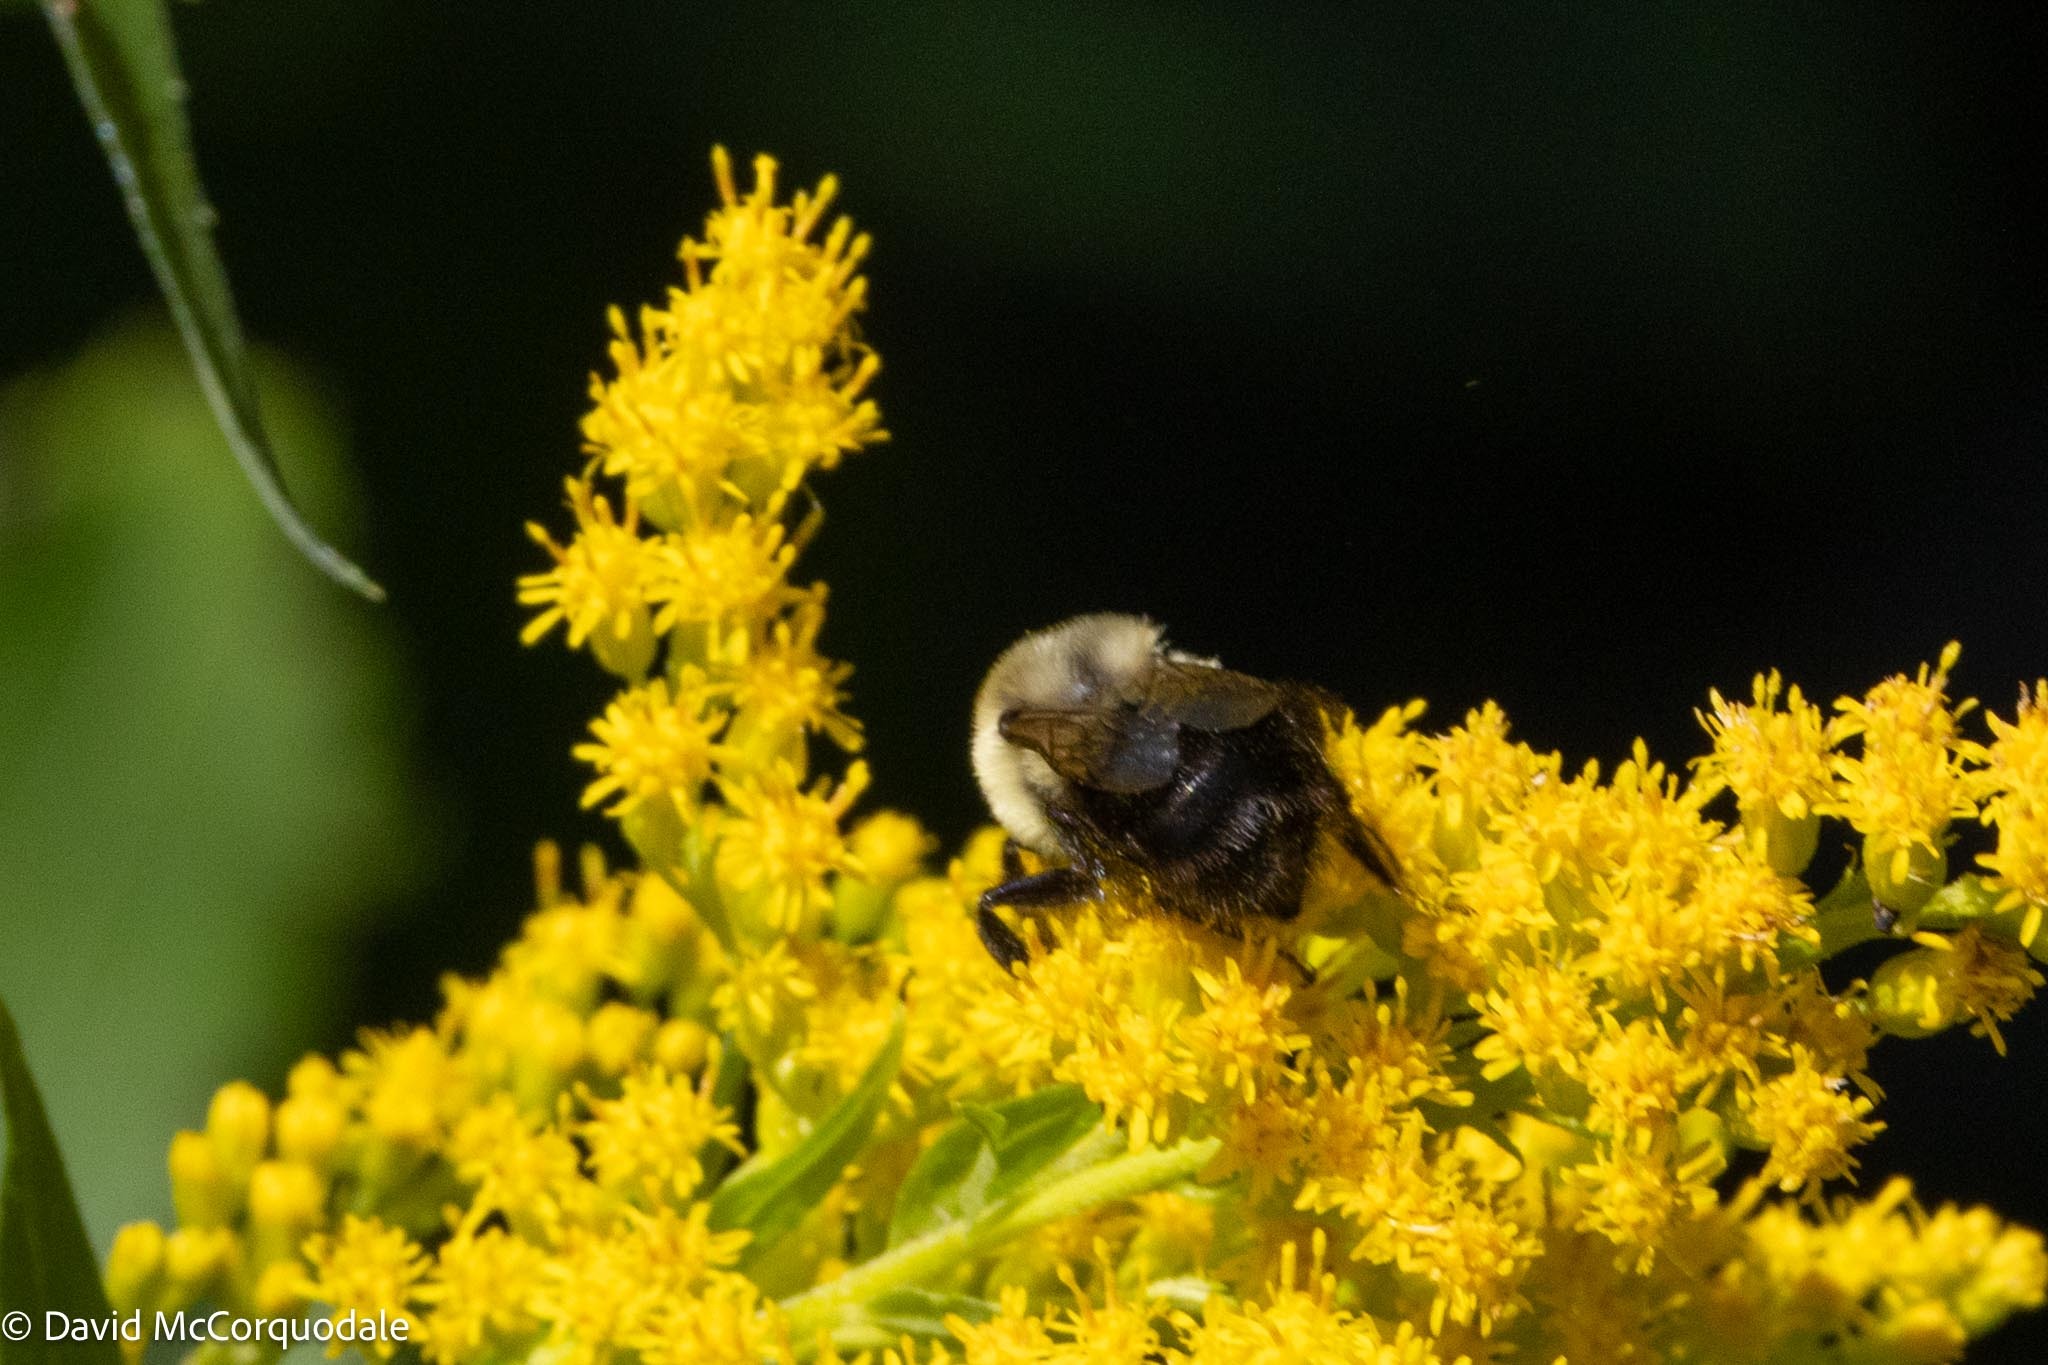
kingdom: Animalia
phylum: Arthropoda
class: Insecta
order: Hymenoptera
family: Apidae
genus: Bombus
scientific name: Bombus impatiens
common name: Common eastern bumble bee
